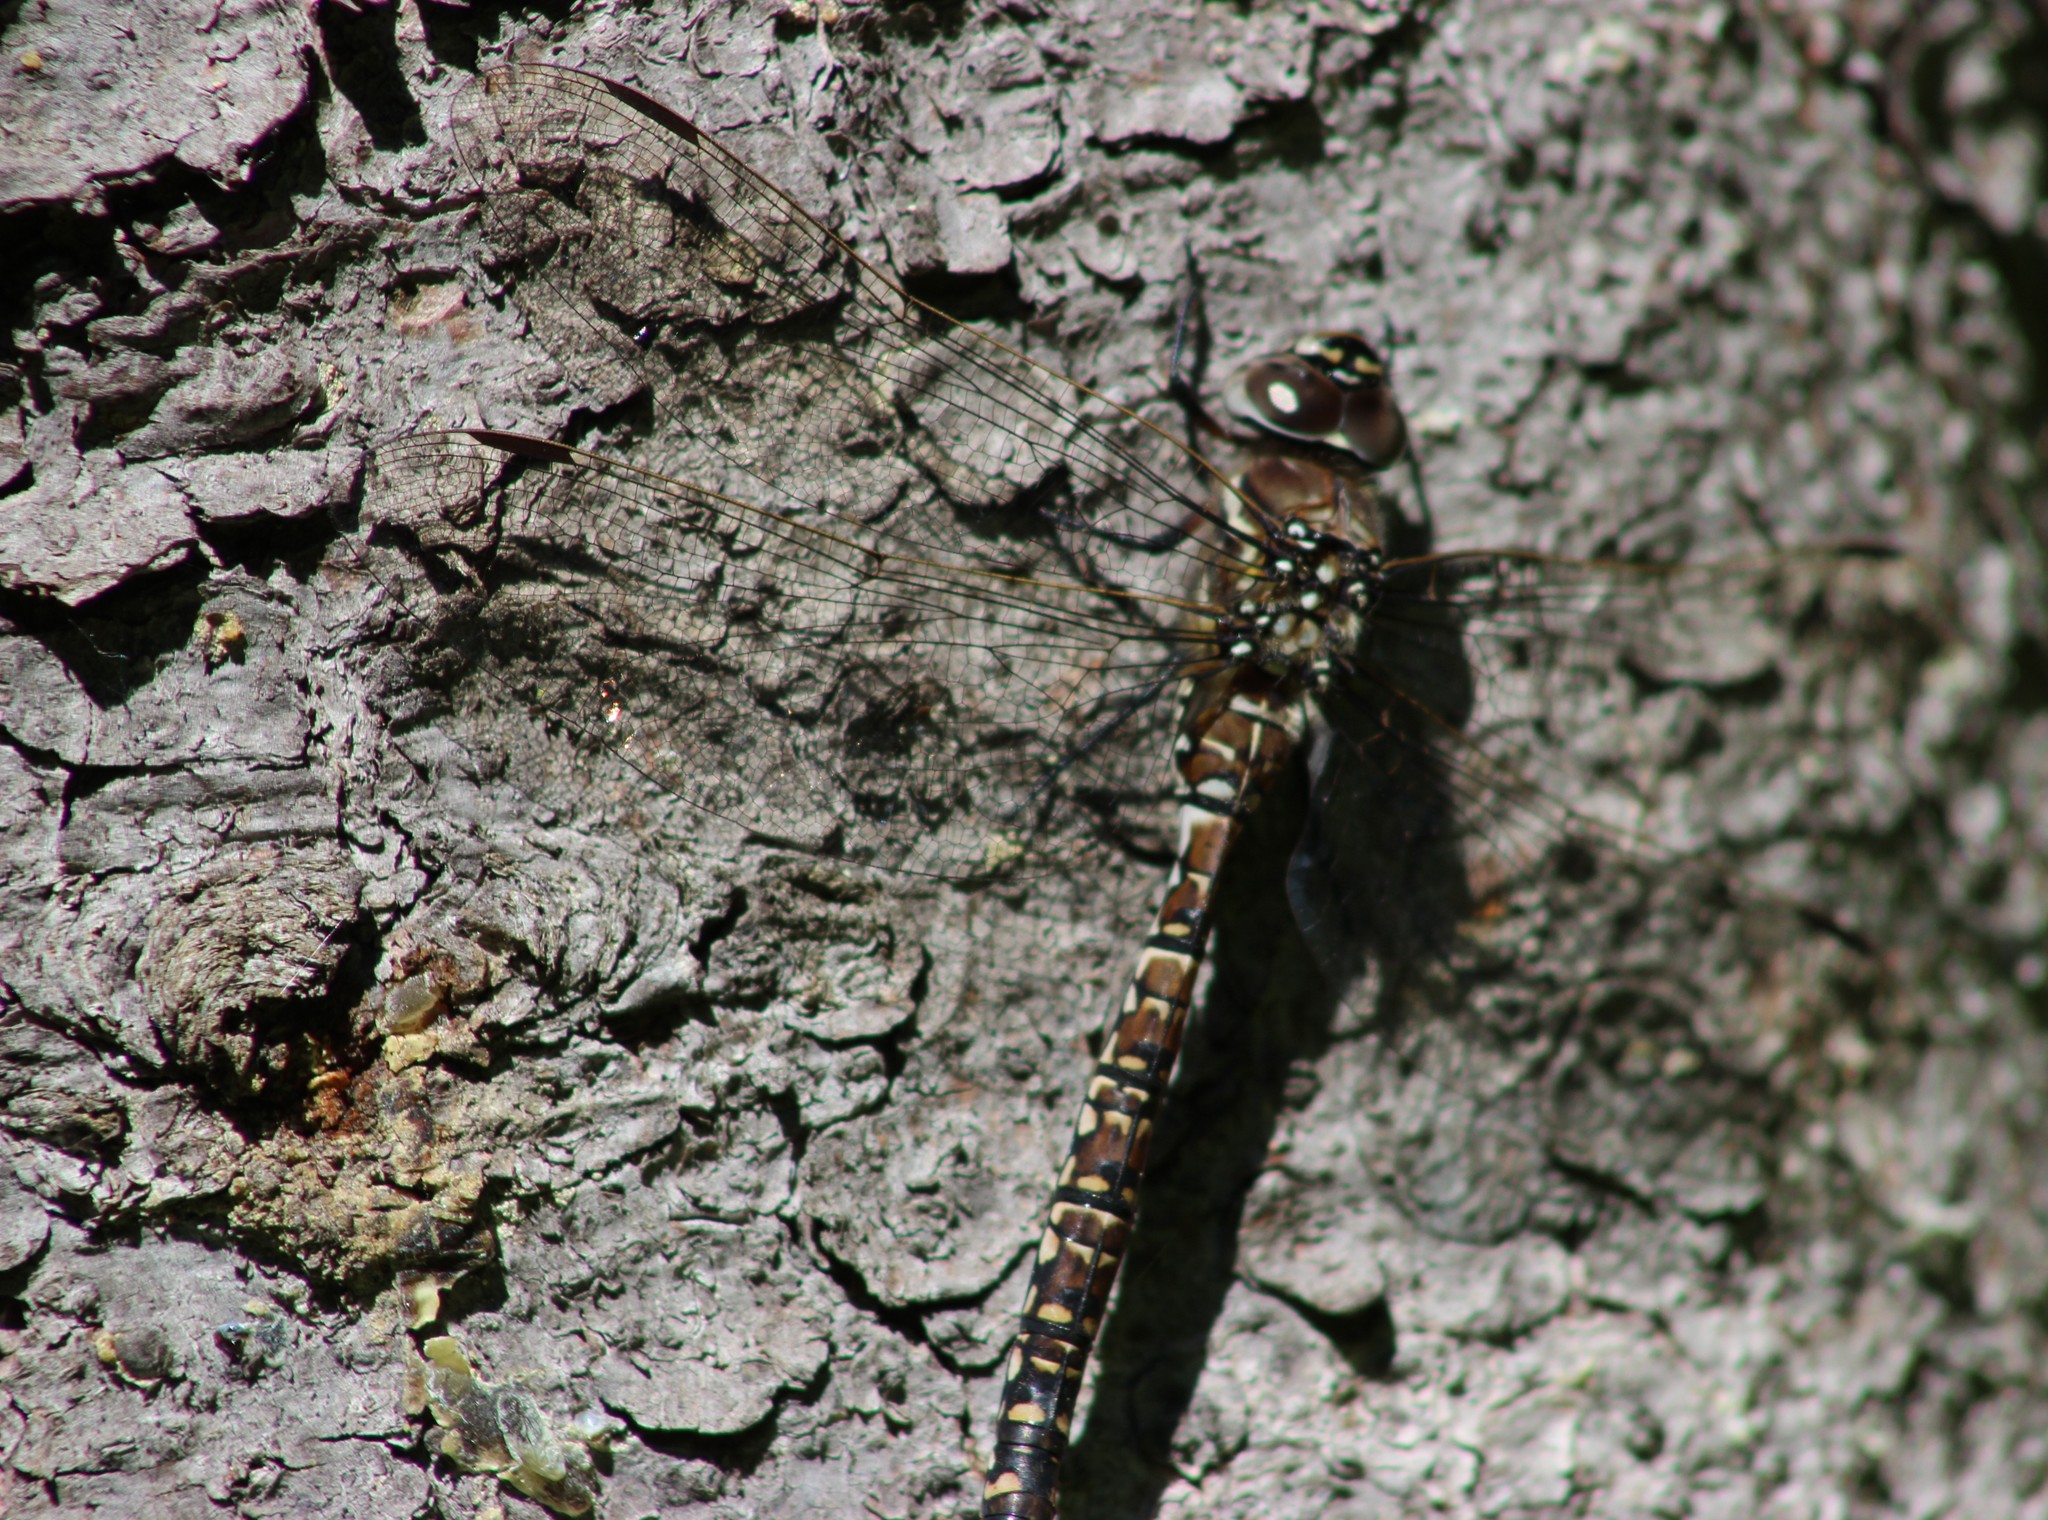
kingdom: Animalia
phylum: Arthropoda
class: Insecta
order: Odonata
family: Aeshnidae
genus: Aeshna
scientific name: Aeshna subarctica
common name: Subarctic darner
